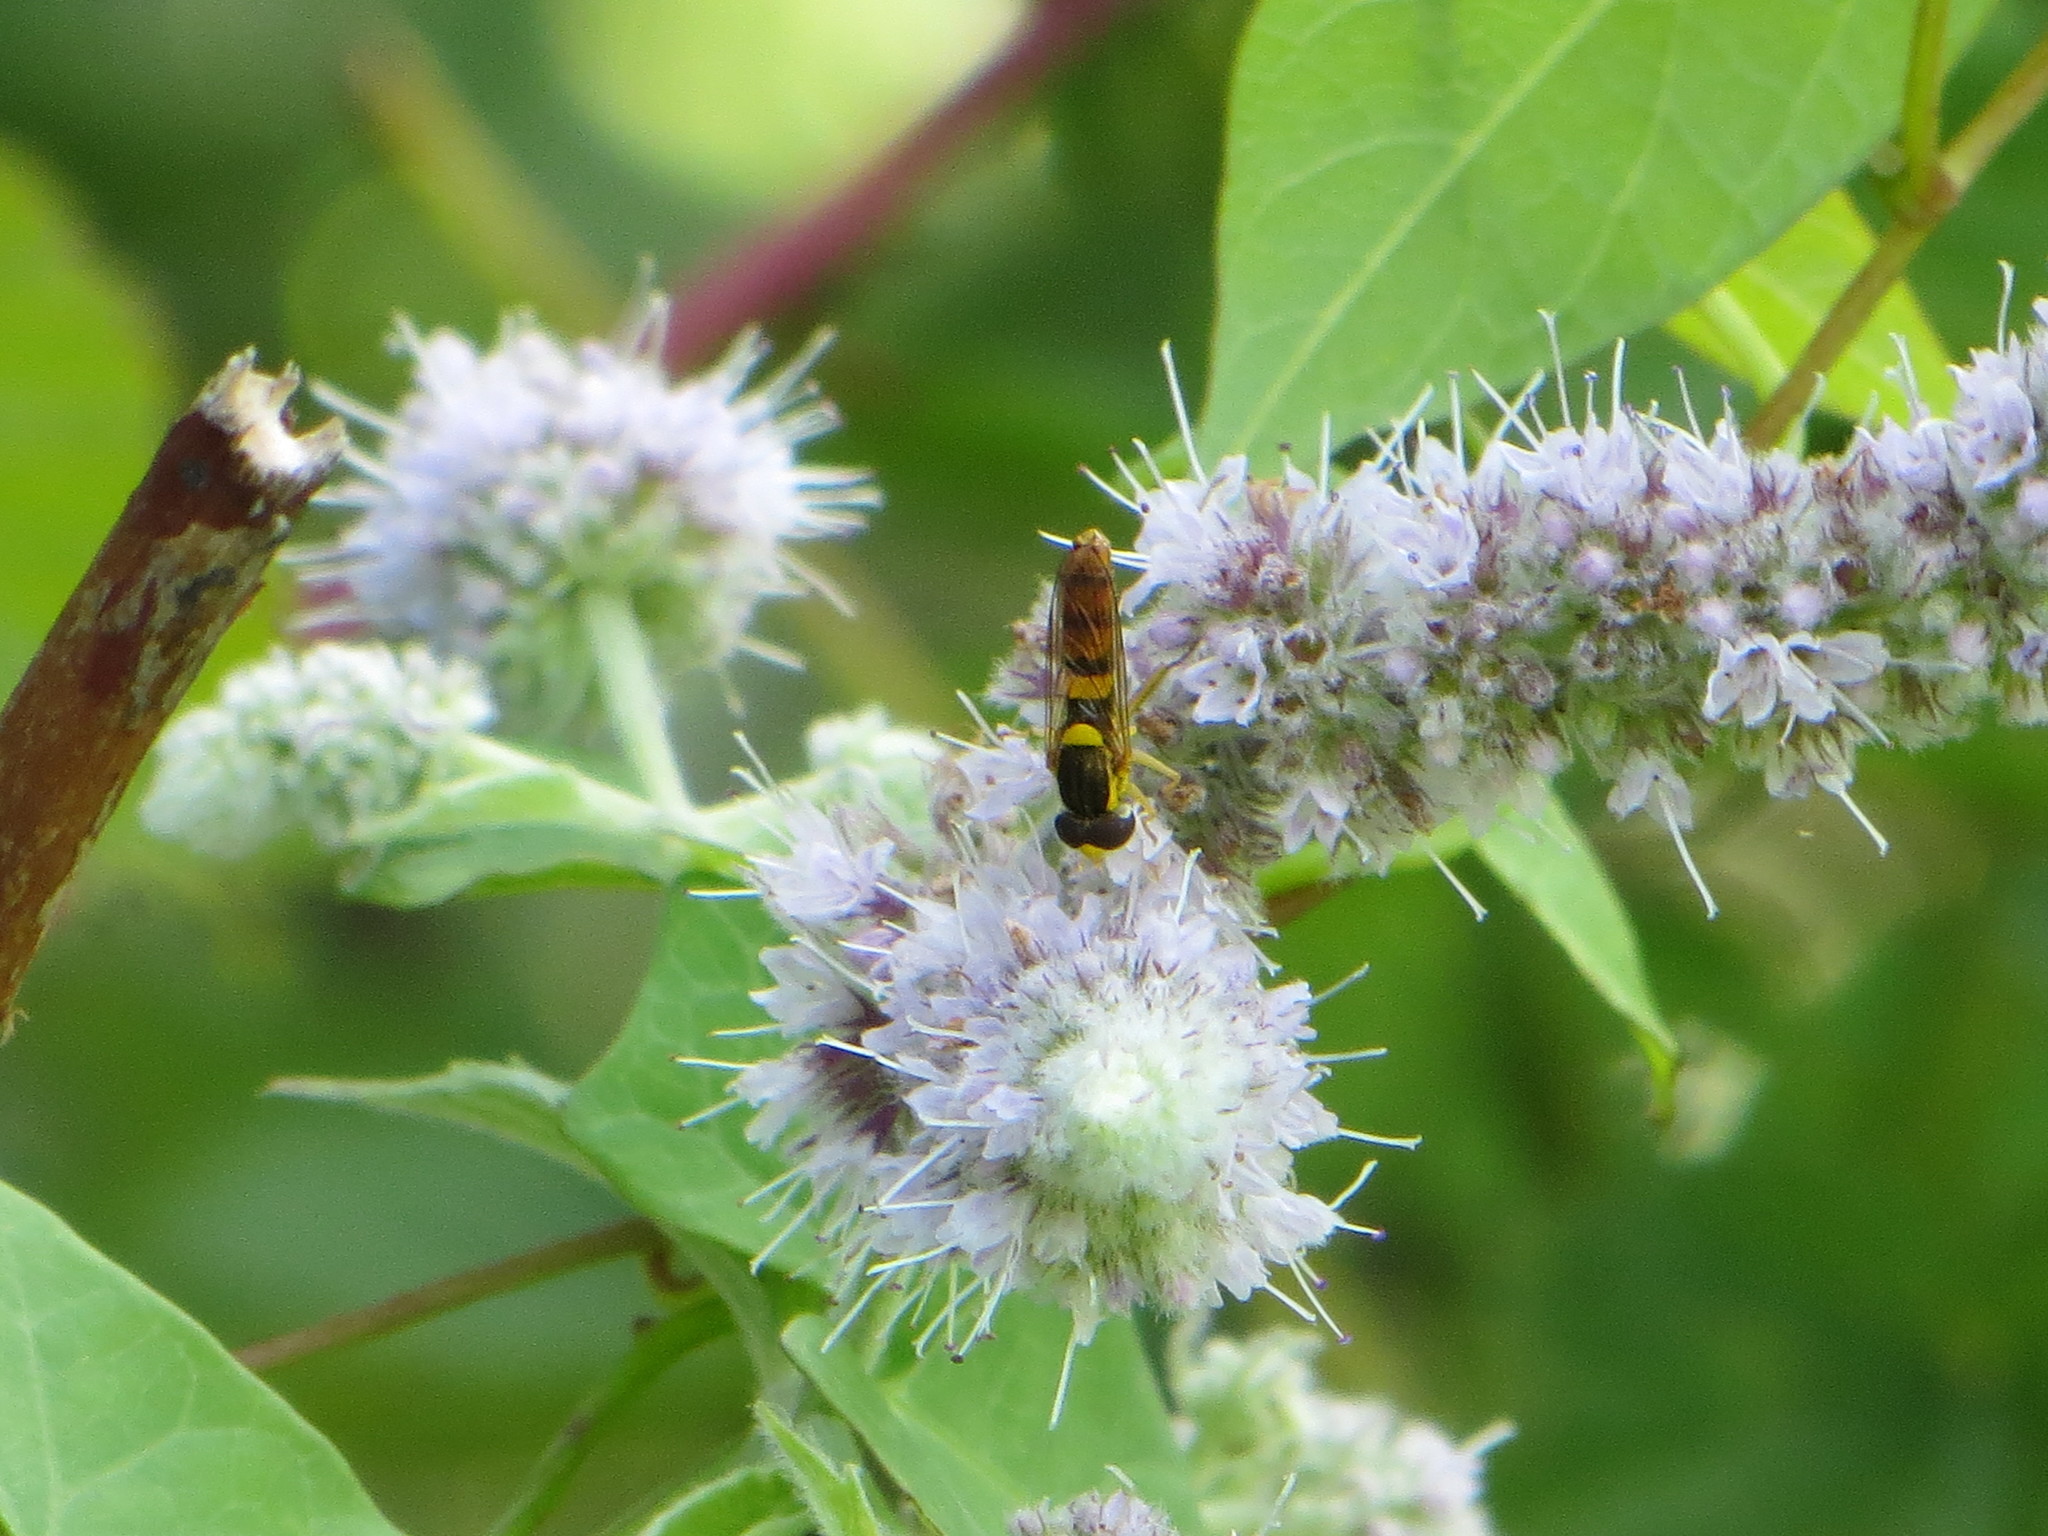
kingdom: Animalia
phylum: Arthropoda
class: Insecta
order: Diptera
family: Syrphidae
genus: Sphaerophoria
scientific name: Sphaerophoria
